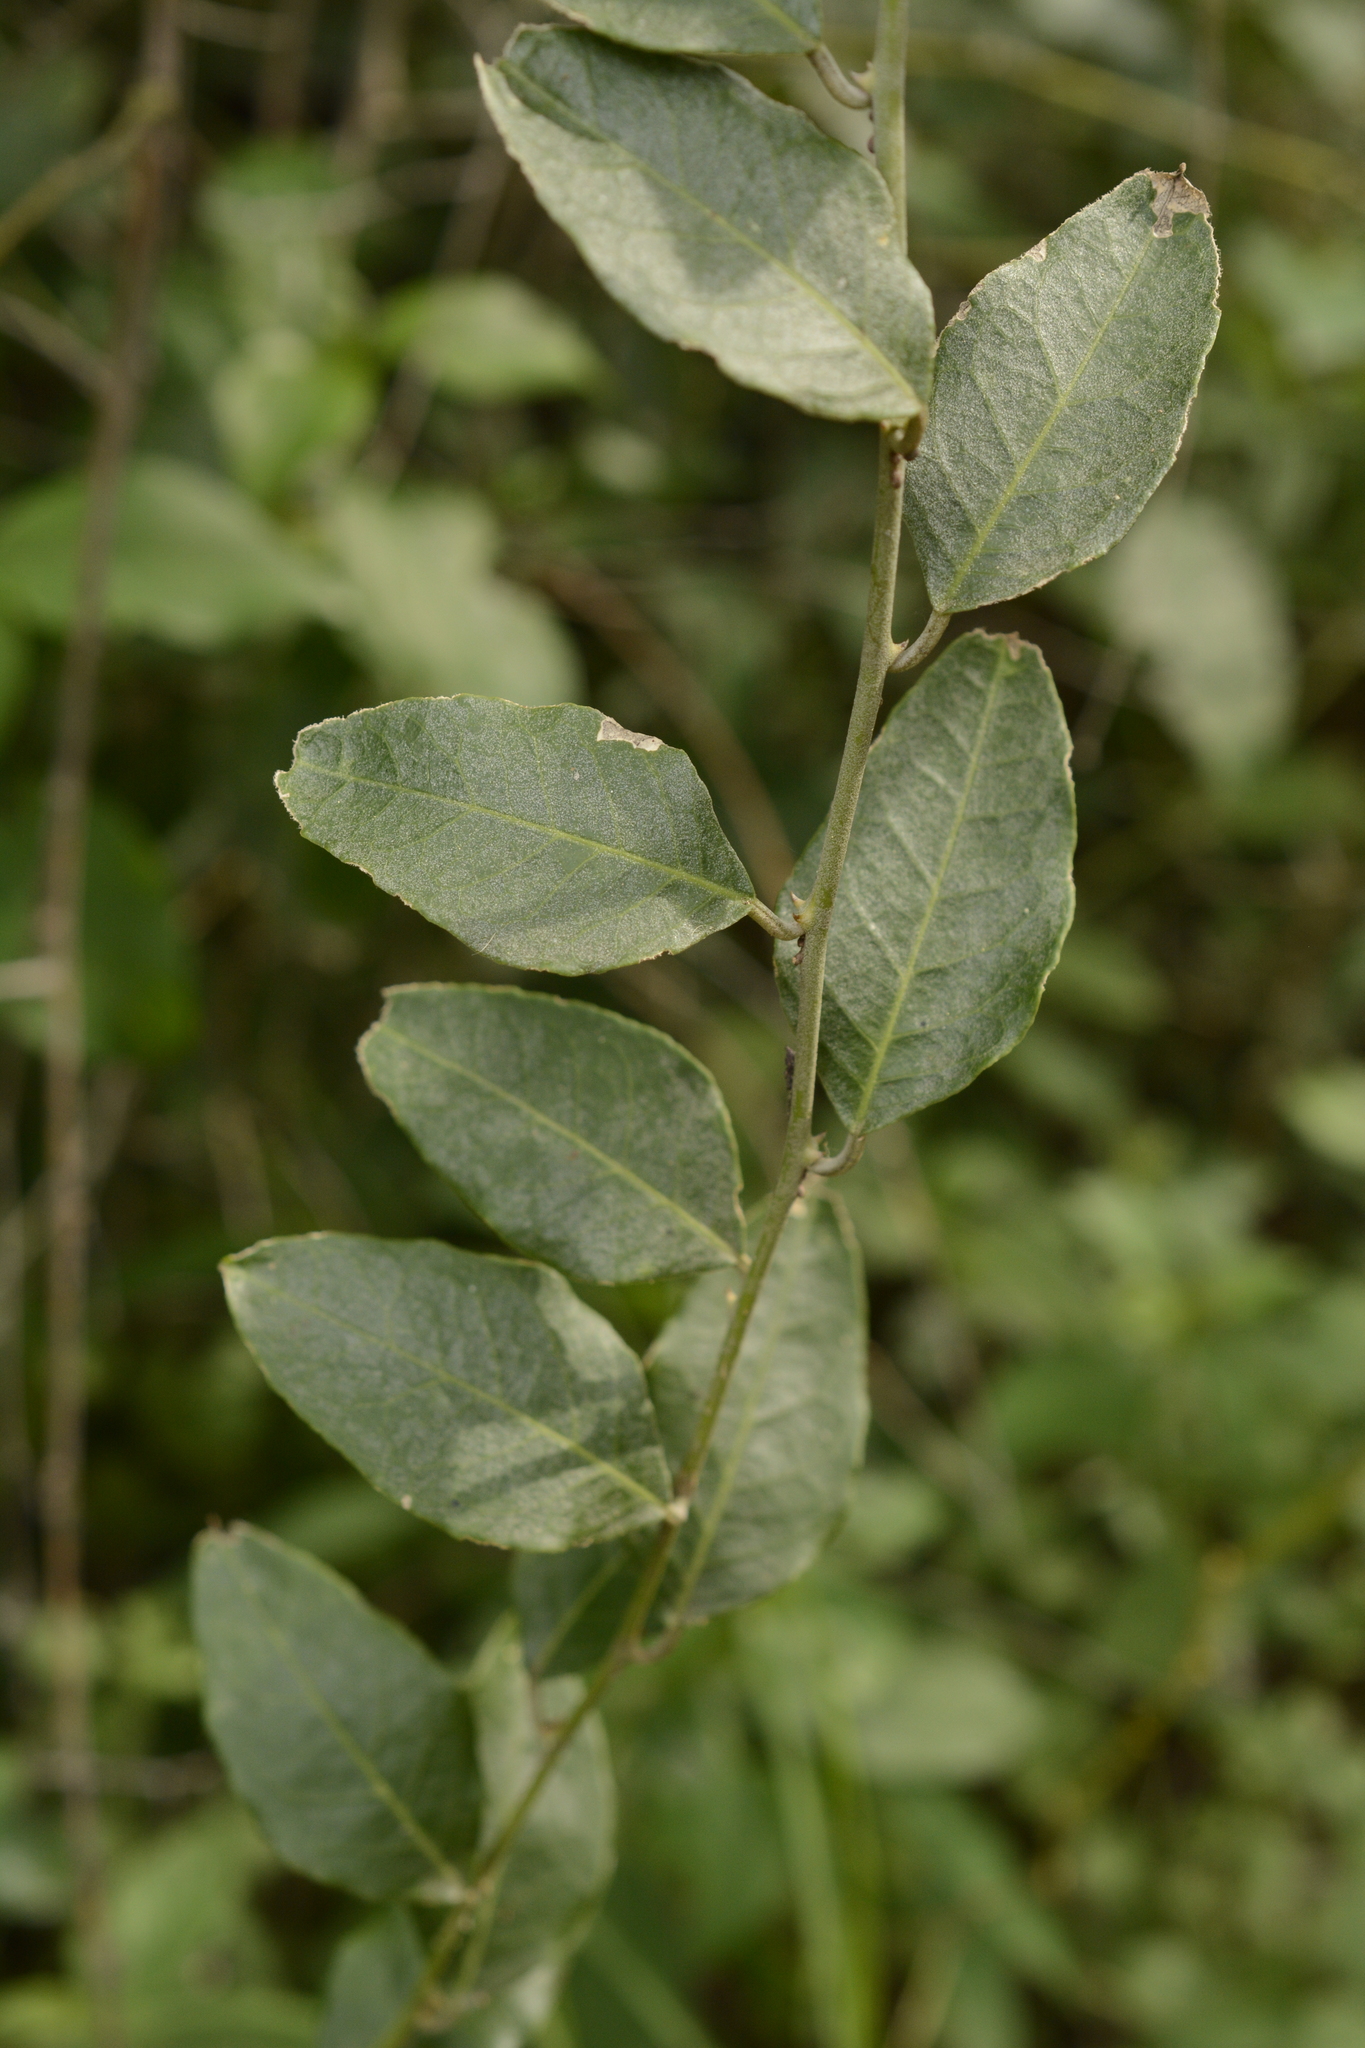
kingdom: Plantae
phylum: Tracheophyta
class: Magnoliopsida
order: Brassicales
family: Capparaceae
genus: Capparis
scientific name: Capparis divaricata
